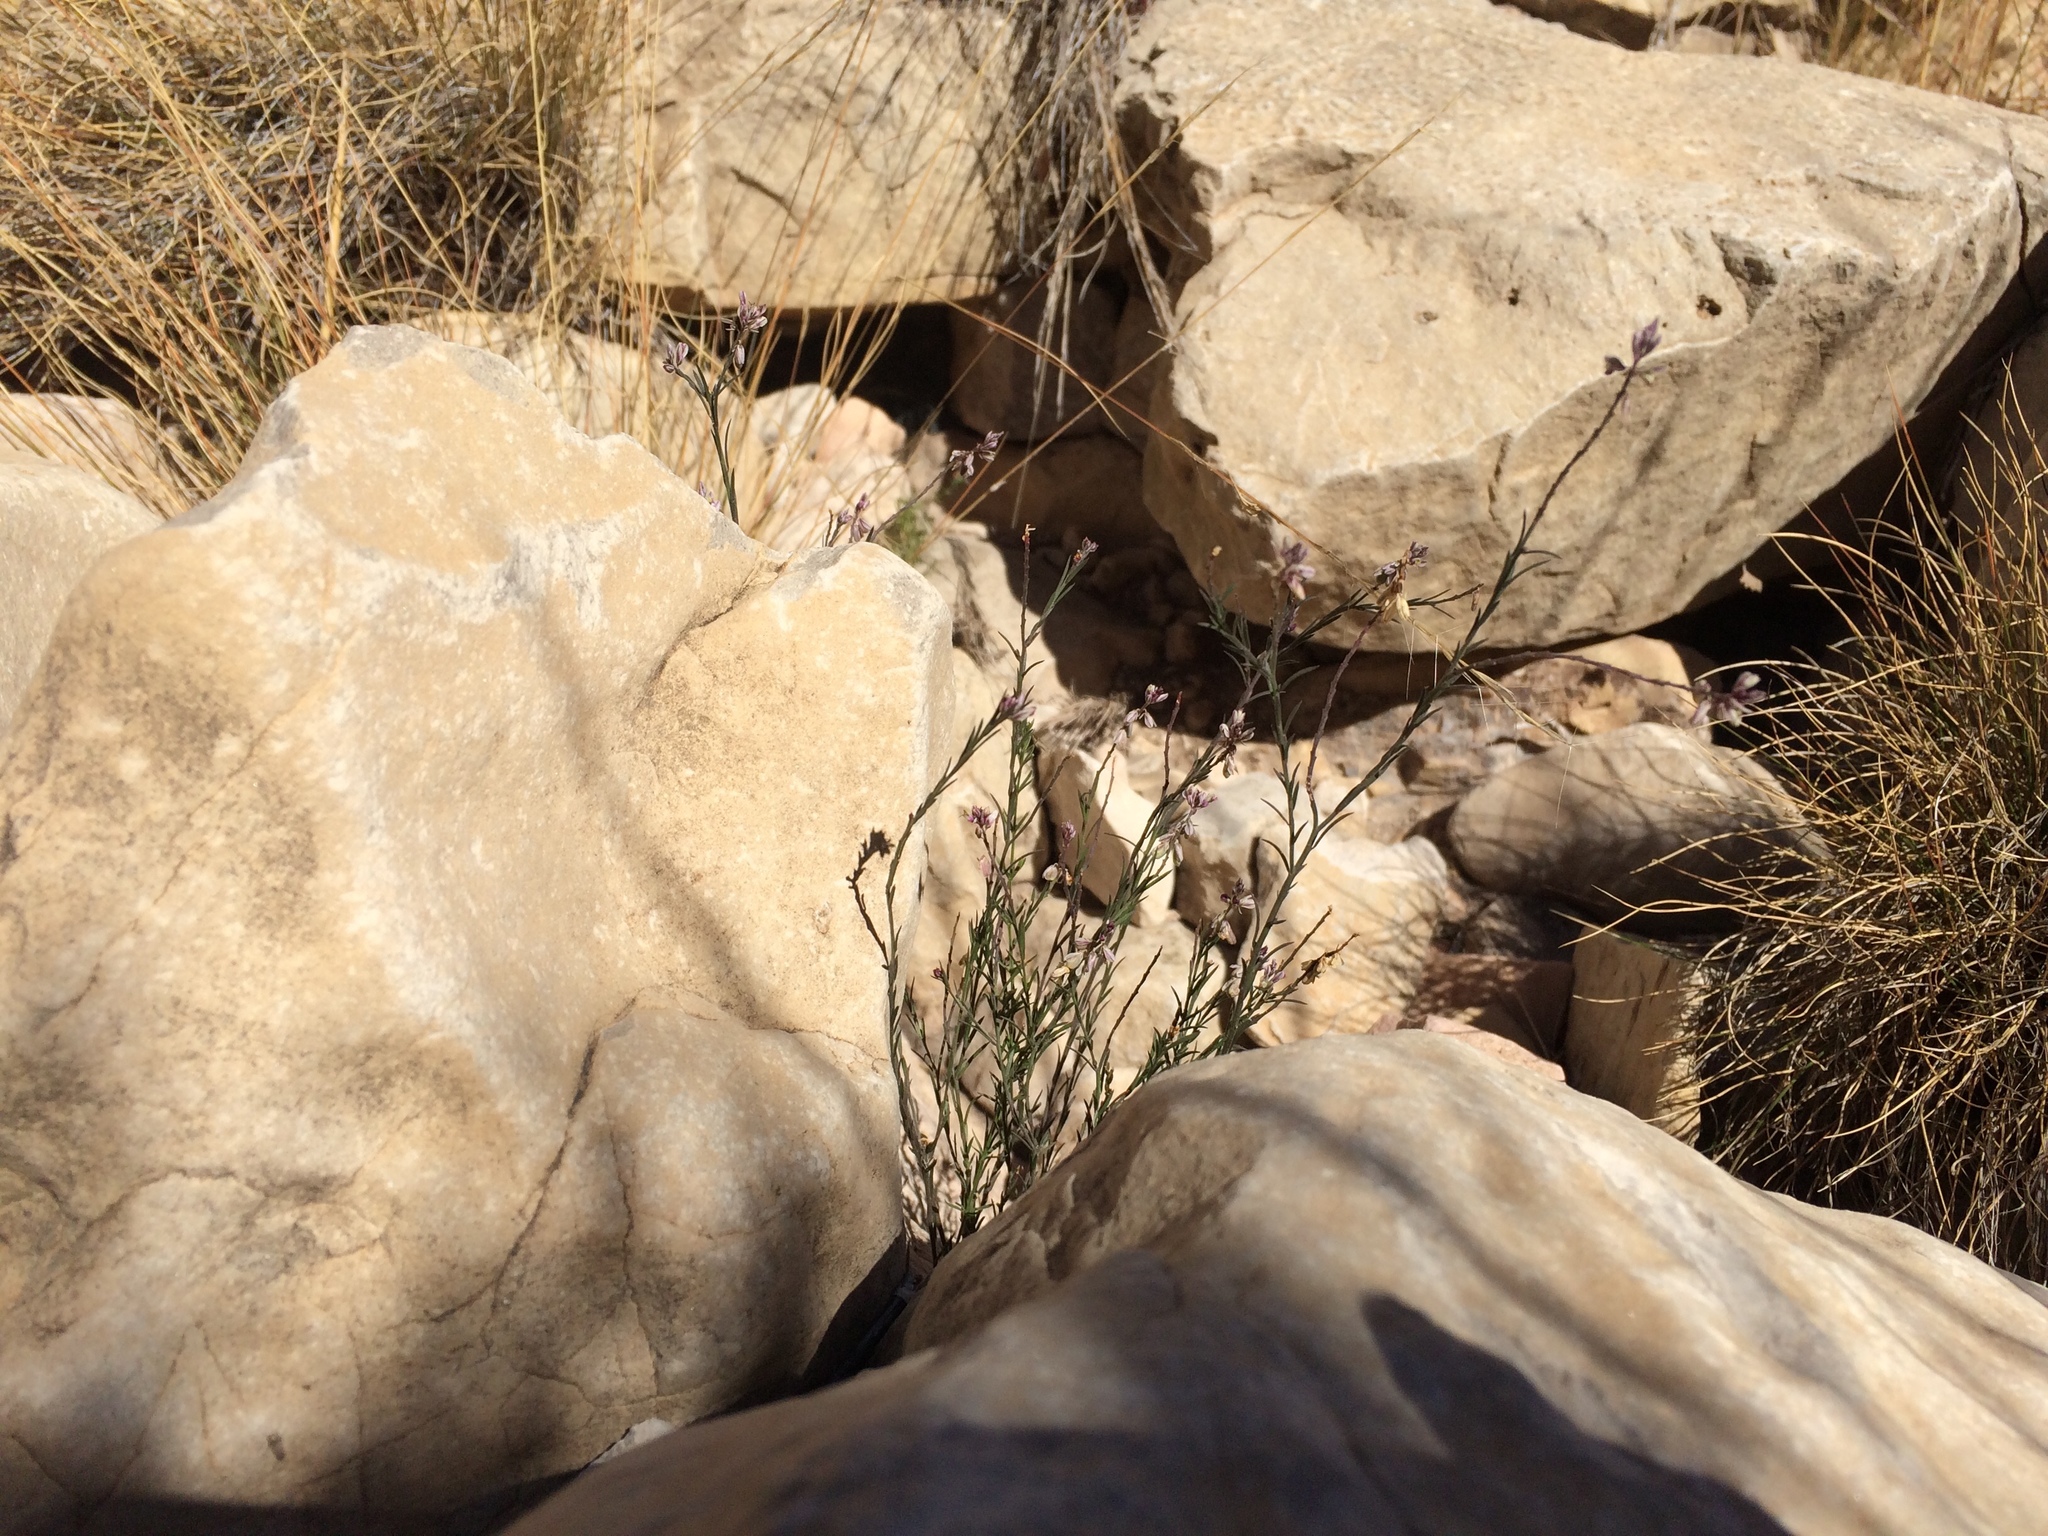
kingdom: Plantae
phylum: Tracheophyta
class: Magnoliopsida
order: Fabales
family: Polygalaceae
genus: Polygala
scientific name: Polygala scoparioides
